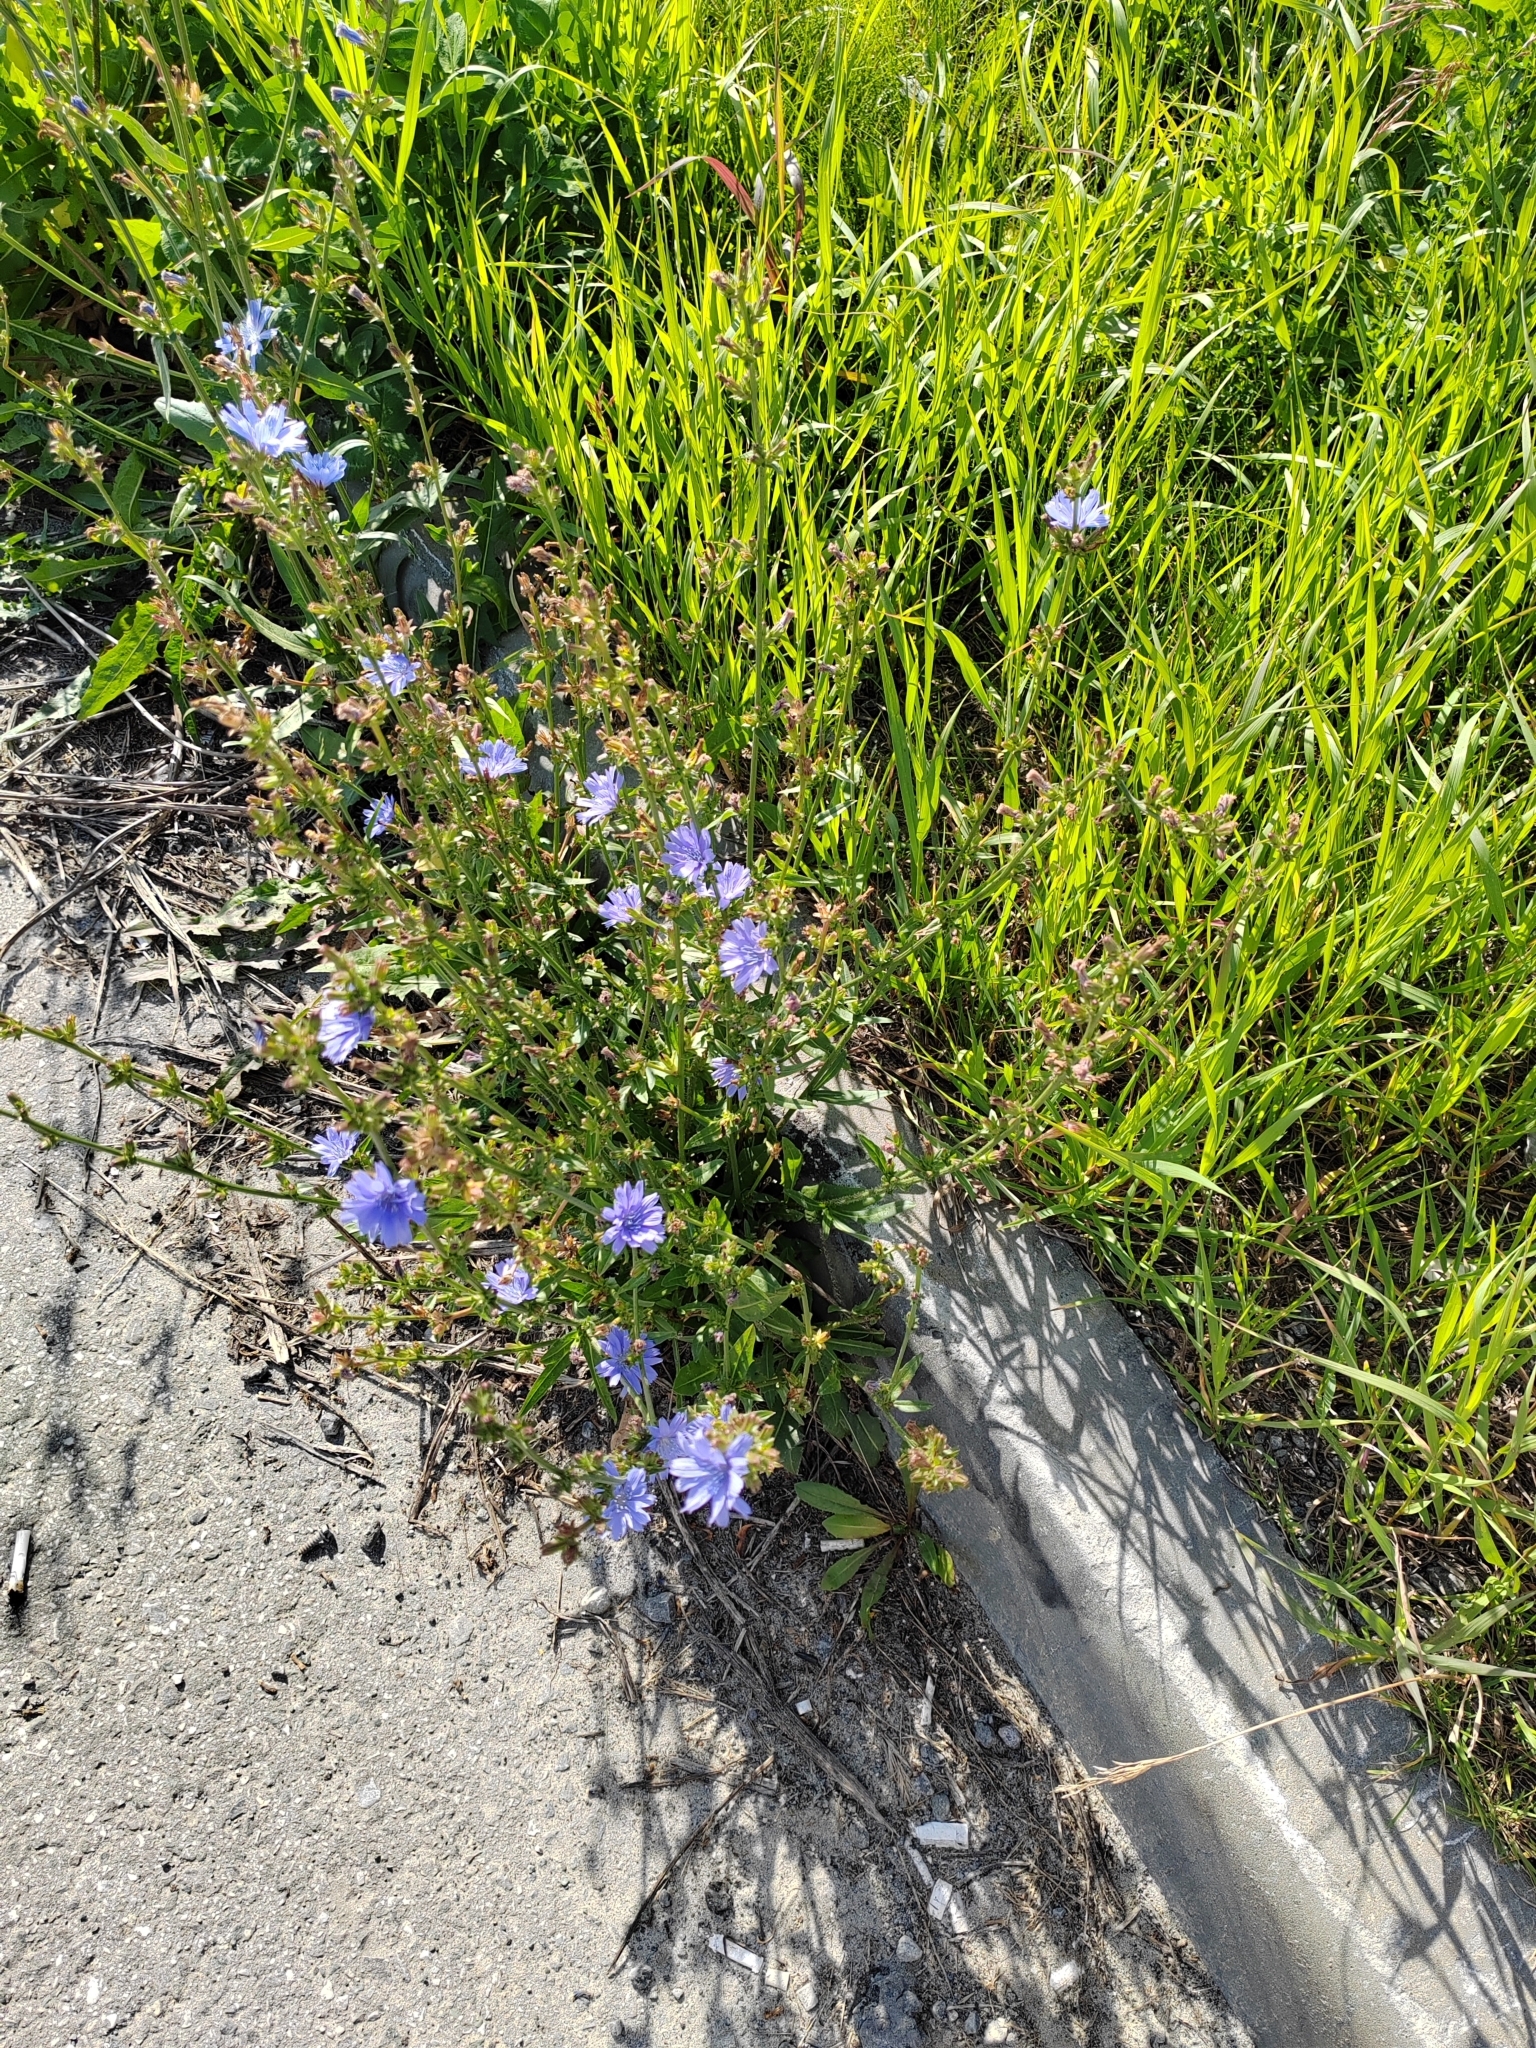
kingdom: Plantae
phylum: Tracheophyta
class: Magnoliopsida
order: Asterales
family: Asteraceae
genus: Cichorium
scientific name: Cichorium intybus
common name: Chicory
